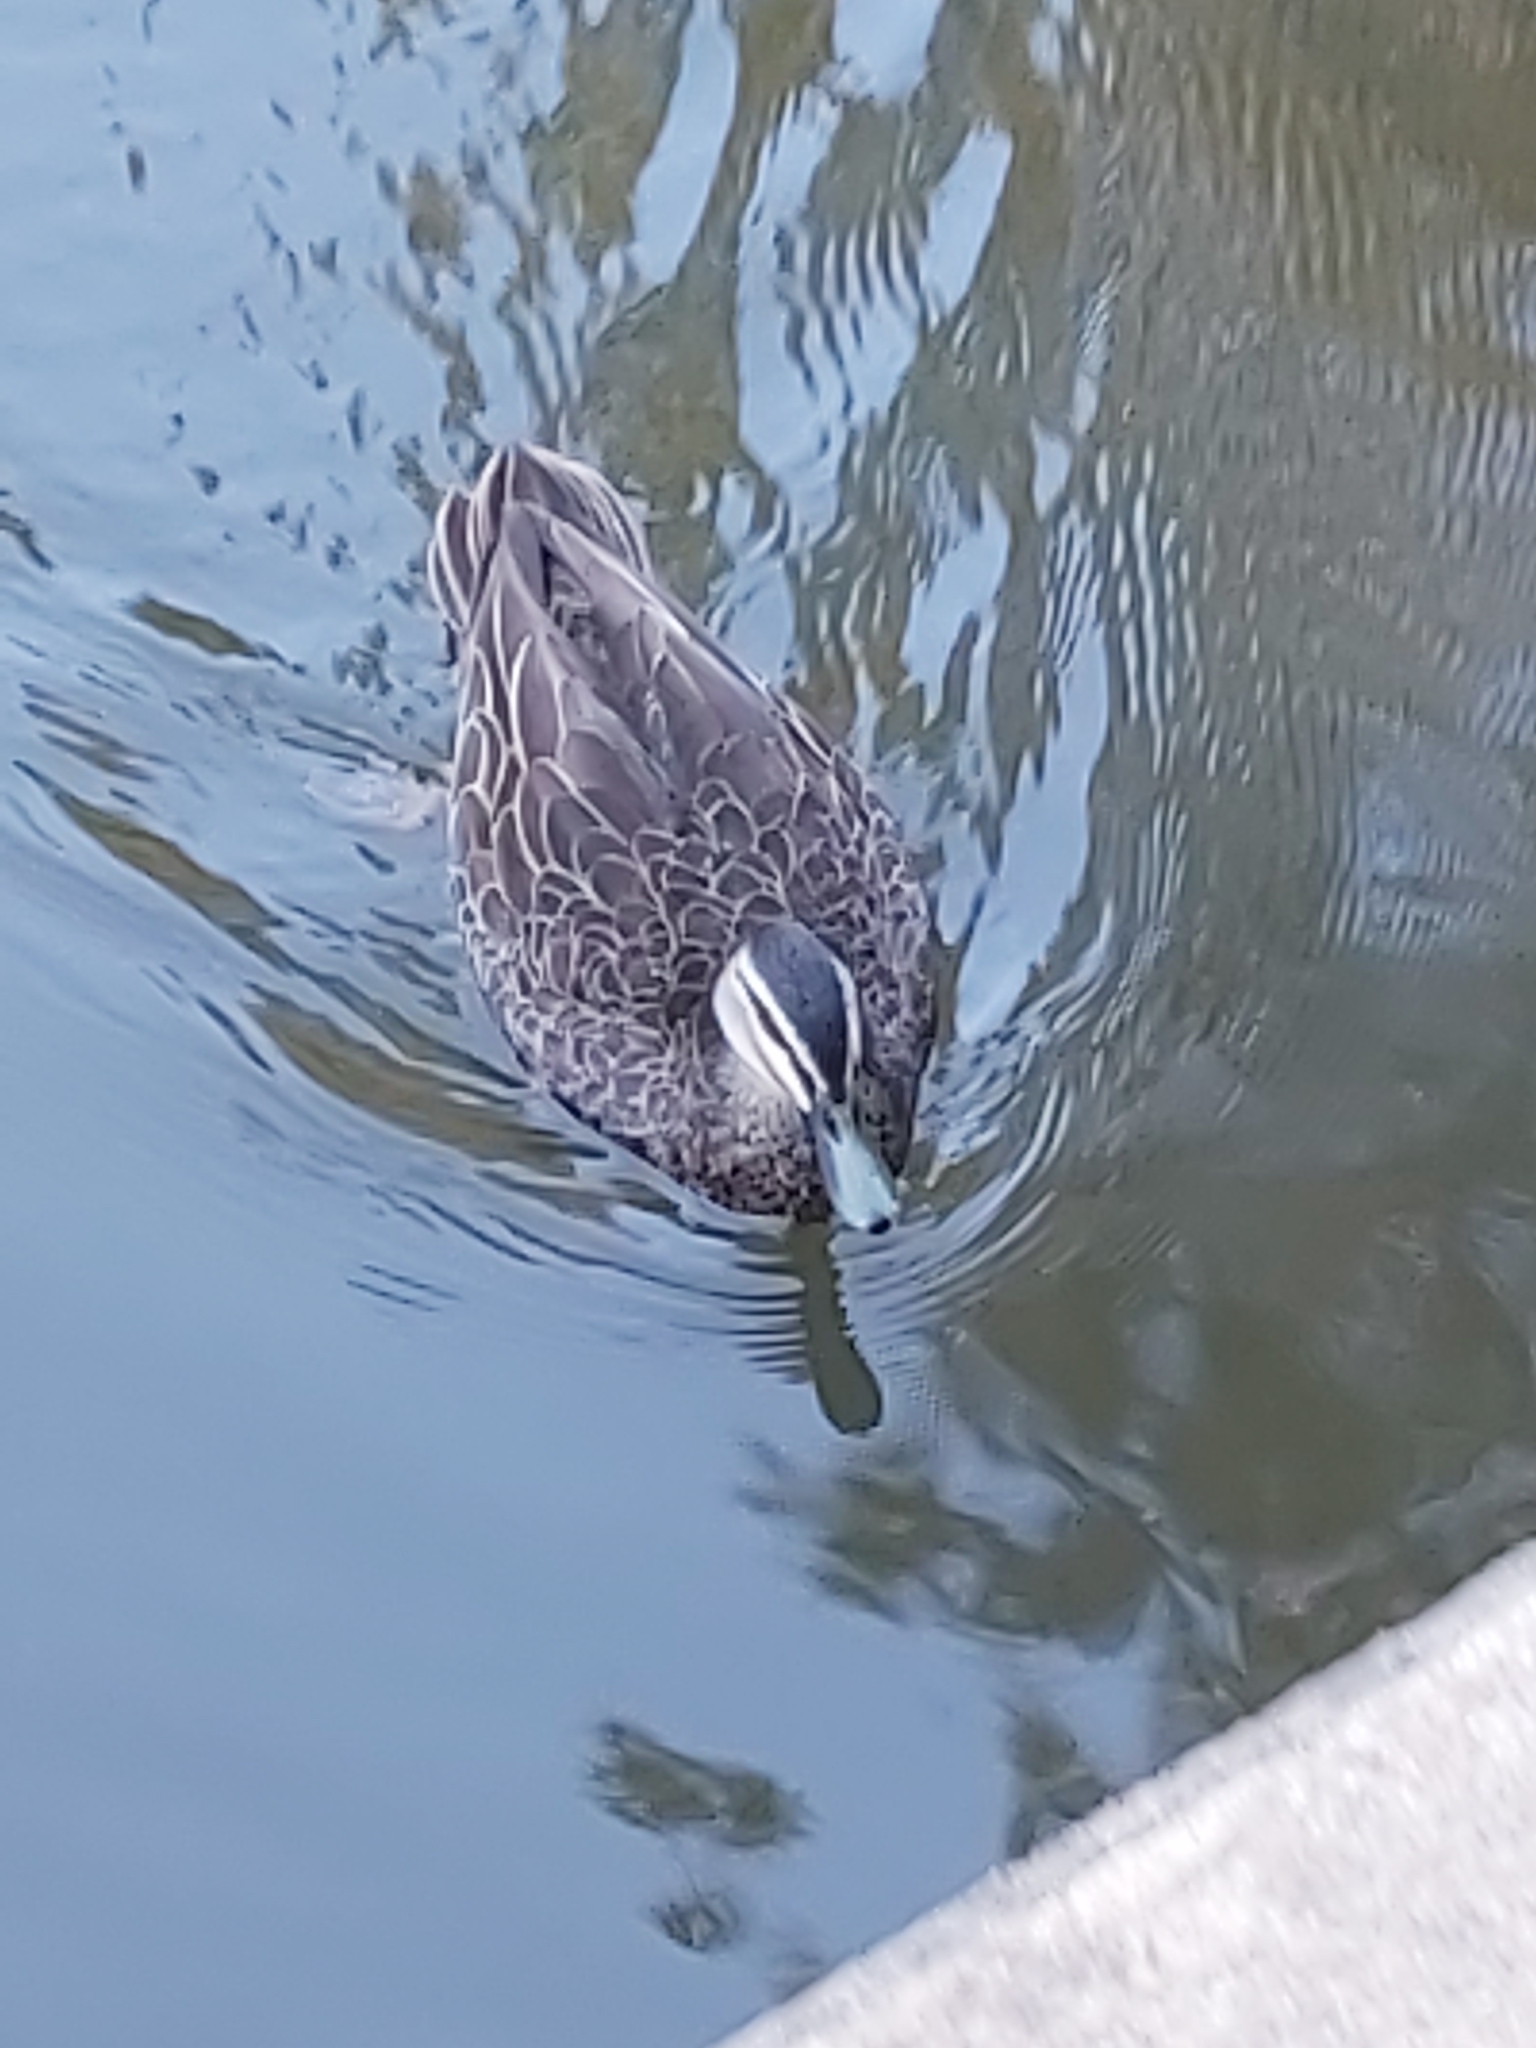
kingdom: Animalia
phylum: Chordata
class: Aves
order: Anseriformes
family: Anatidae
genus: Anas
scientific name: Anas superciliosa
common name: Pacific black duck
